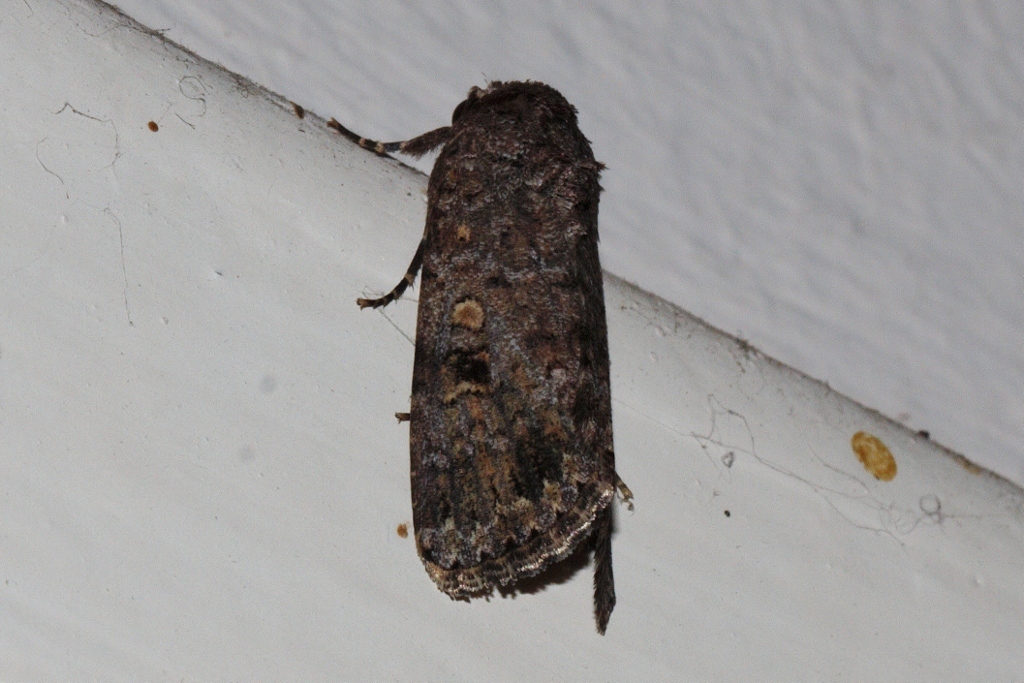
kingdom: Animalia
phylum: Arthropoda
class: Insecta
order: Lepidoptera
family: Noctuidae
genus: Spodoptera
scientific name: Spodoptera cilium
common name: Dark mottled willow
